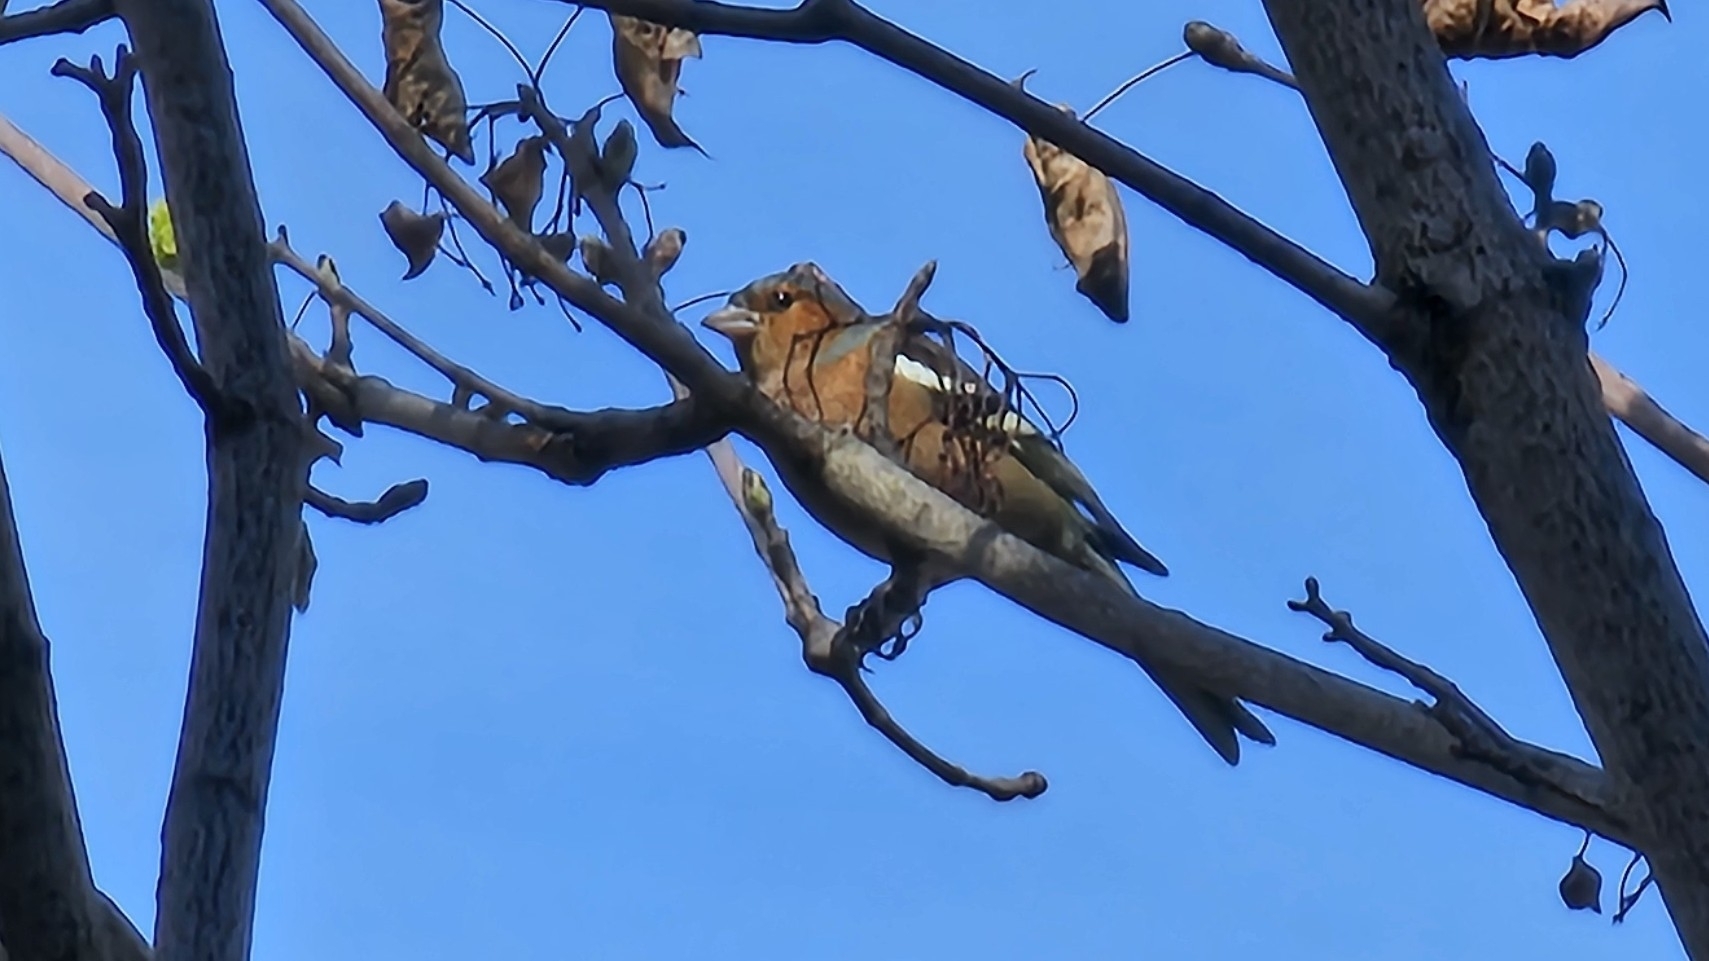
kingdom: Animalia
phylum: Chordata
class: Aves
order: Passeriformes
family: Fringillidae
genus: Fringilla
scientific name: Fringilla coelebs
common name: Common chaffinch
